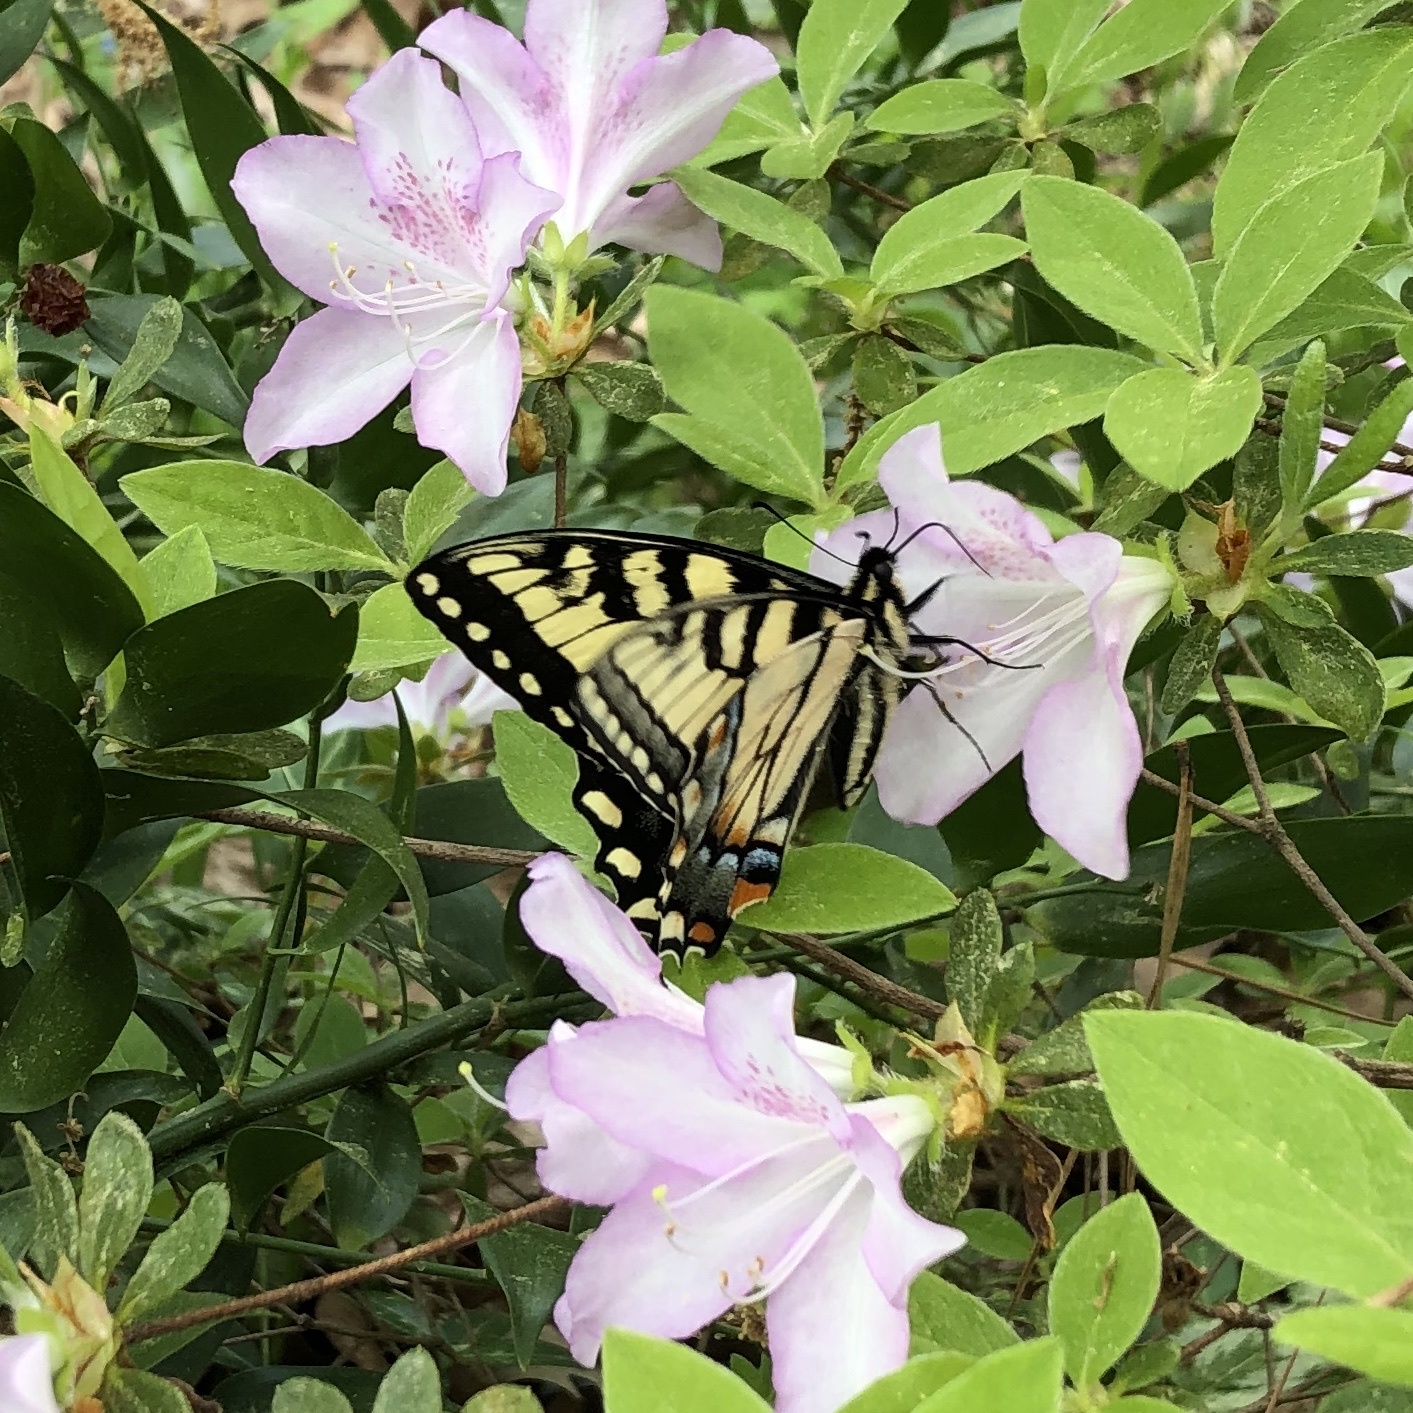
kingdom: Animalia
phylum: Arthropoda
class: Insecta
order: Lepidoptera
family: Papilionidae
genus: Papilio
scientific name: Papilio glaucus
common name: Tiger swallowtail
